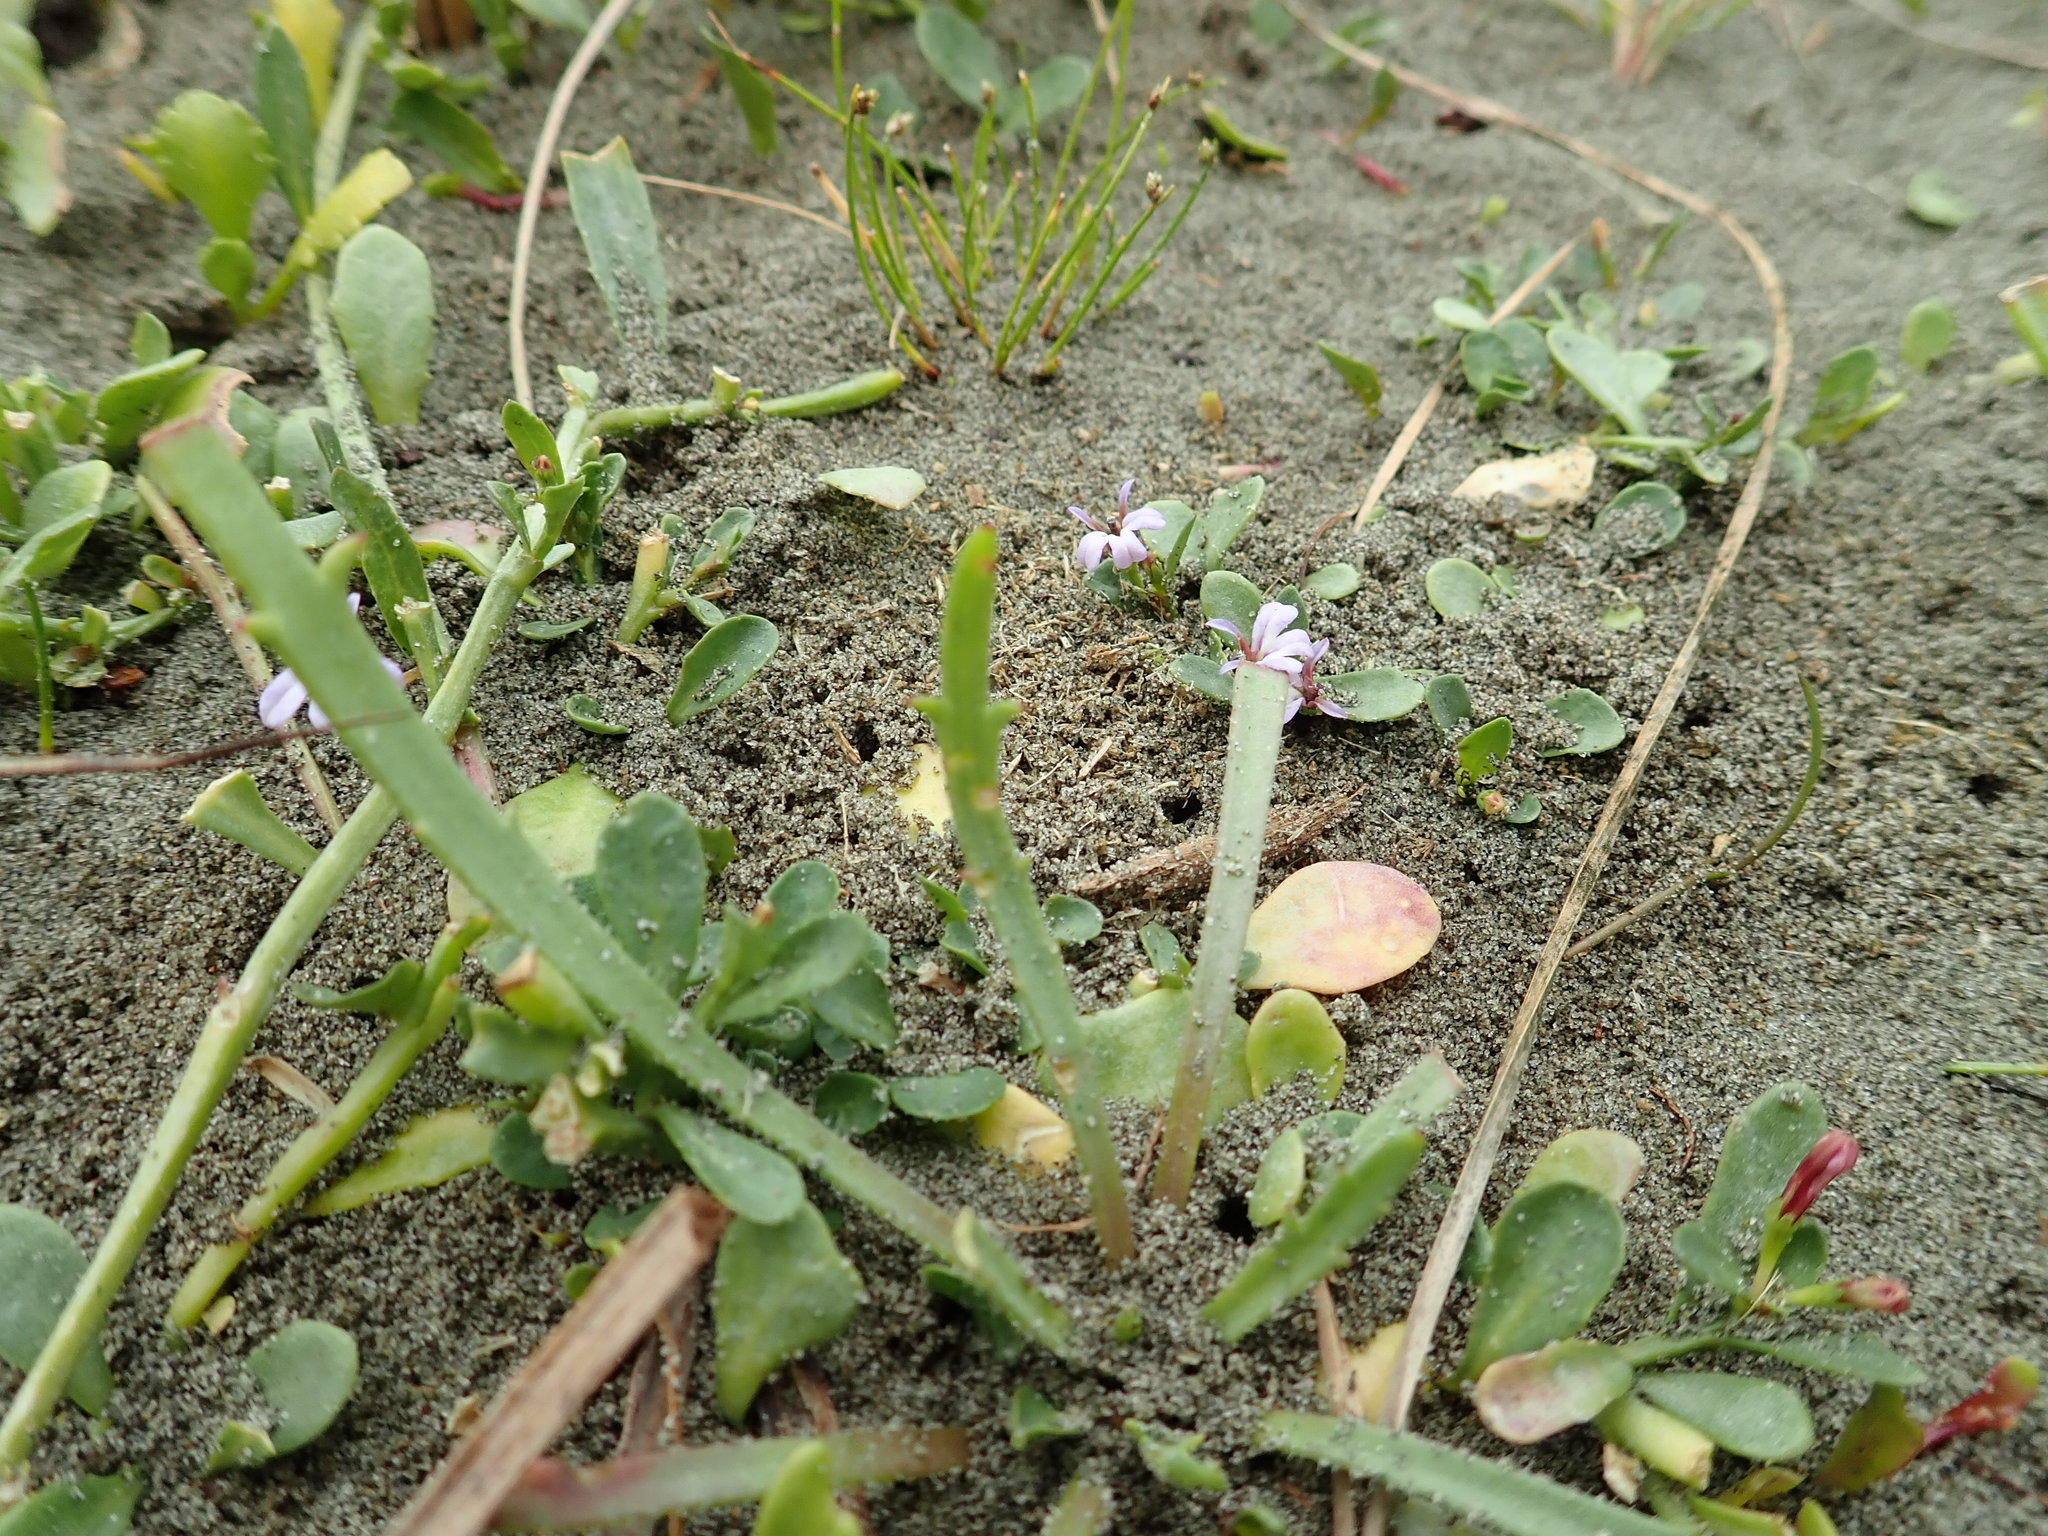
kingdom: Plantae
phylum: Tracheophyta
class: Magnoliopsida
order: Asterales
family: Campanulaceae
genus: Lobelia
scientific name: Lobelia anceps
